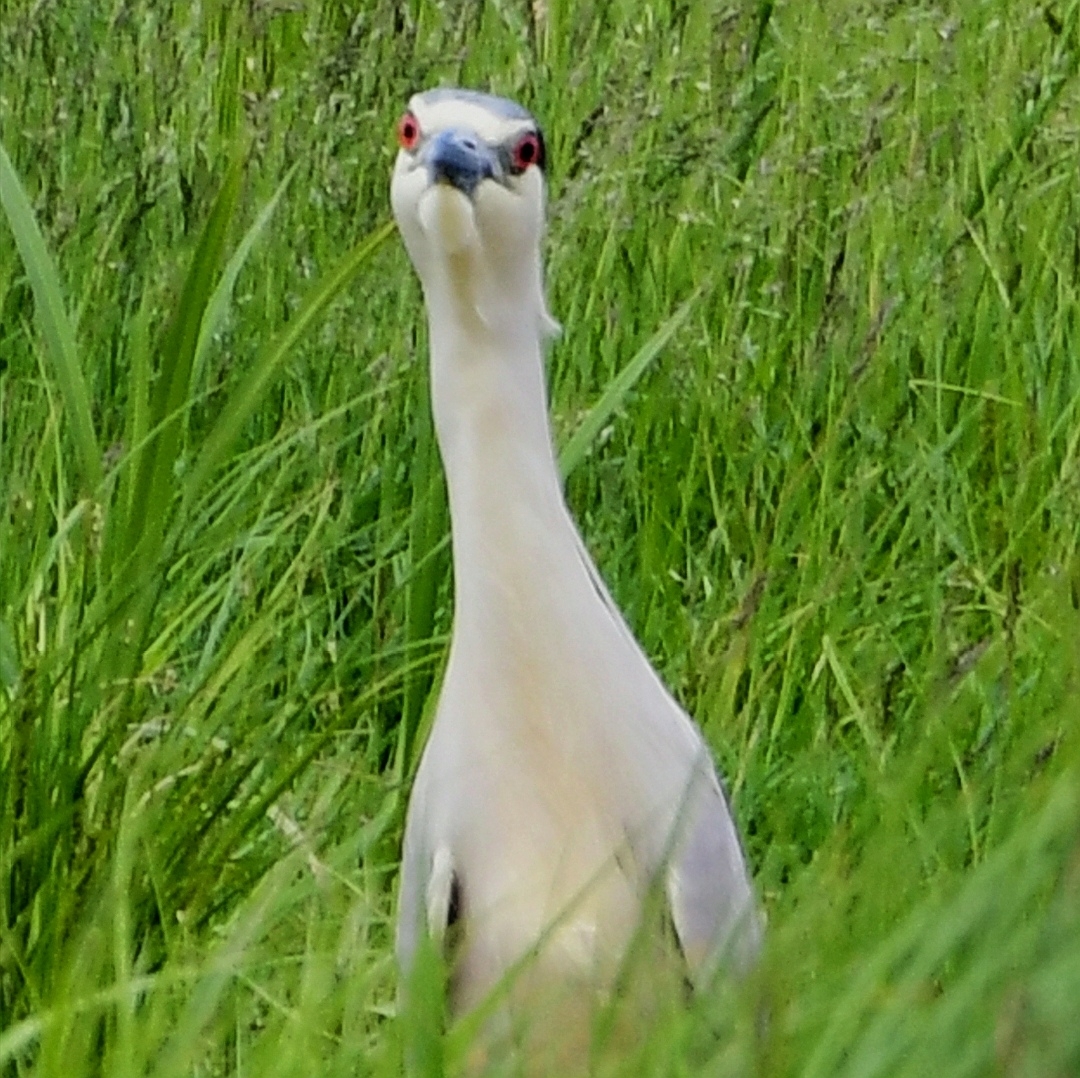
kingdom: Animalia
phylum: Chordata
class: Aves
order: Pelecaniformes
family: Ardeidae
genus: Nycticorax
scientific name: Nycticorax nycticorax
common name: Black-crowned night heron
